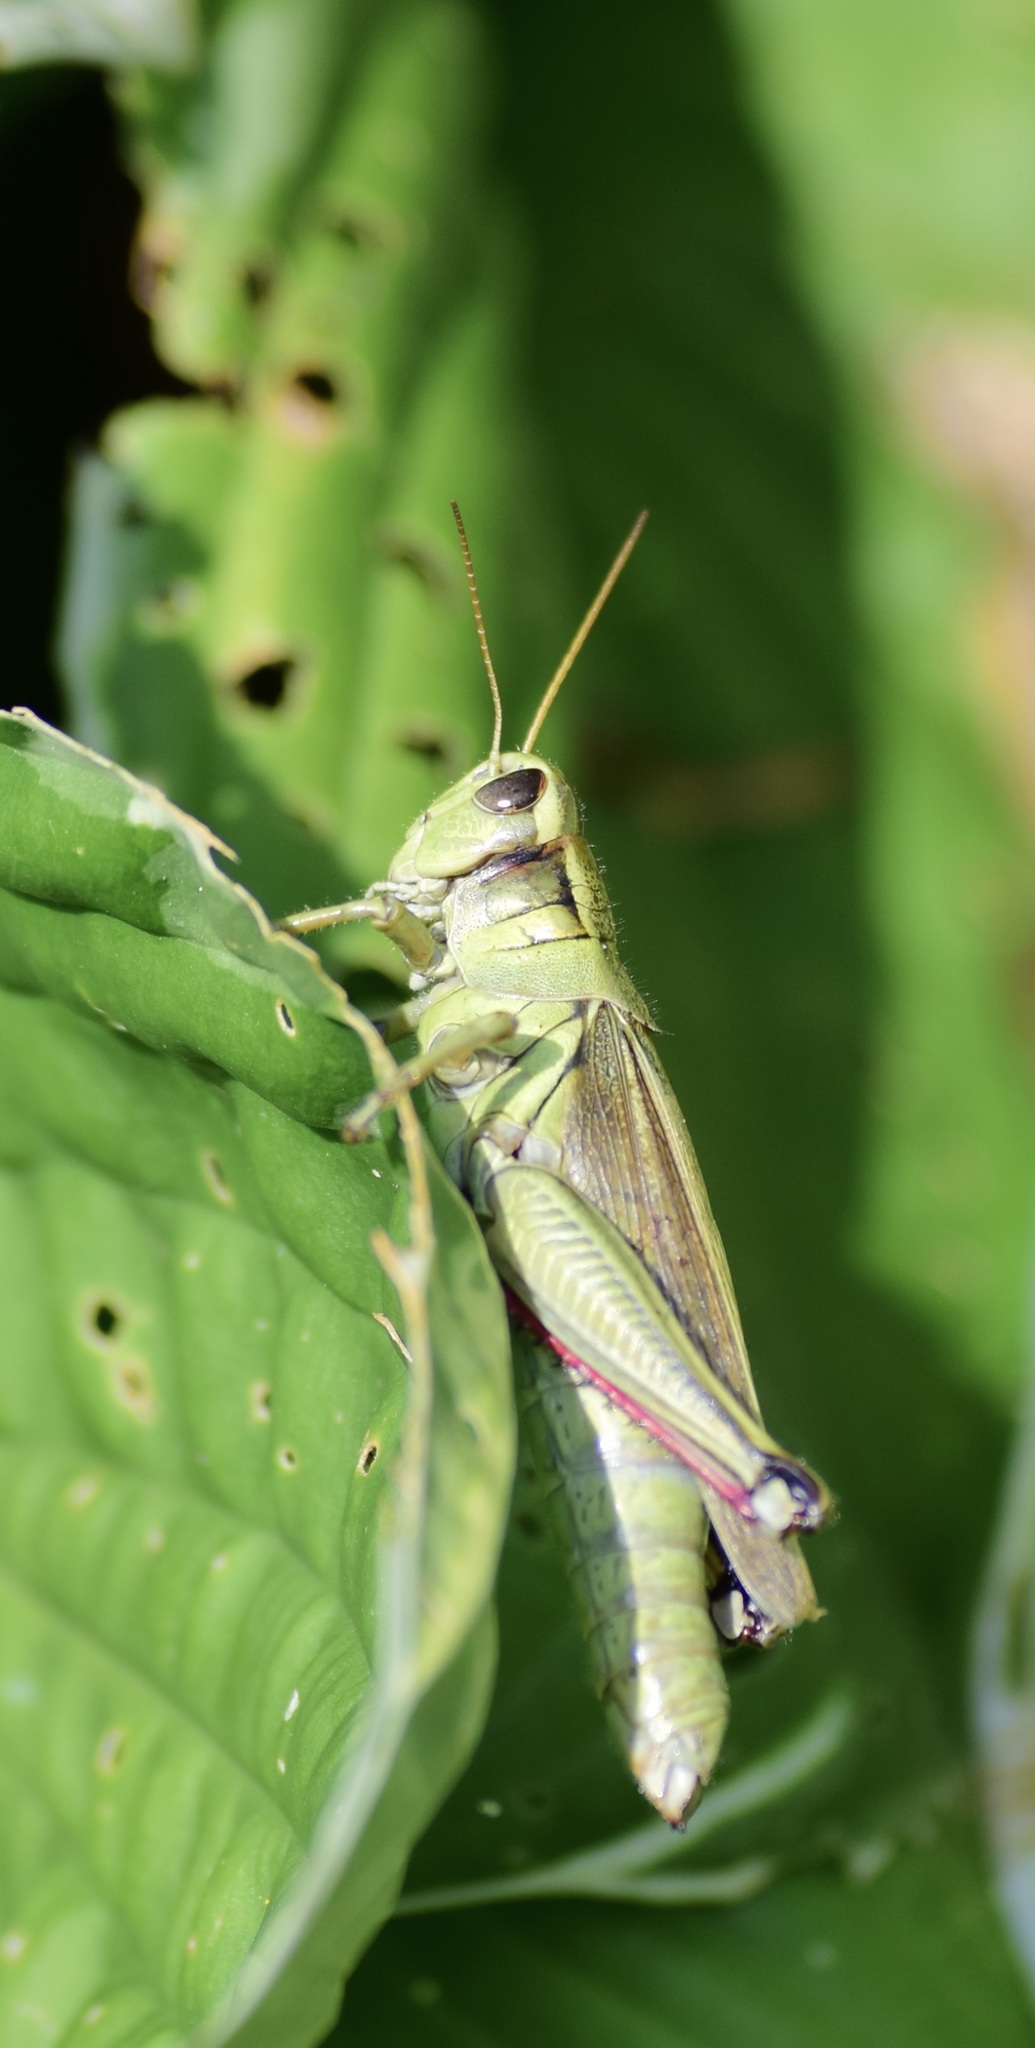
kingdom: Animalia
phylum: Arthropoda
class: Insecta
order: Orthoptera
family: Acrididae
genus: Melanoplus
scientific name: Melanoplus bivittatus
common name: Two-striped grasshopper
